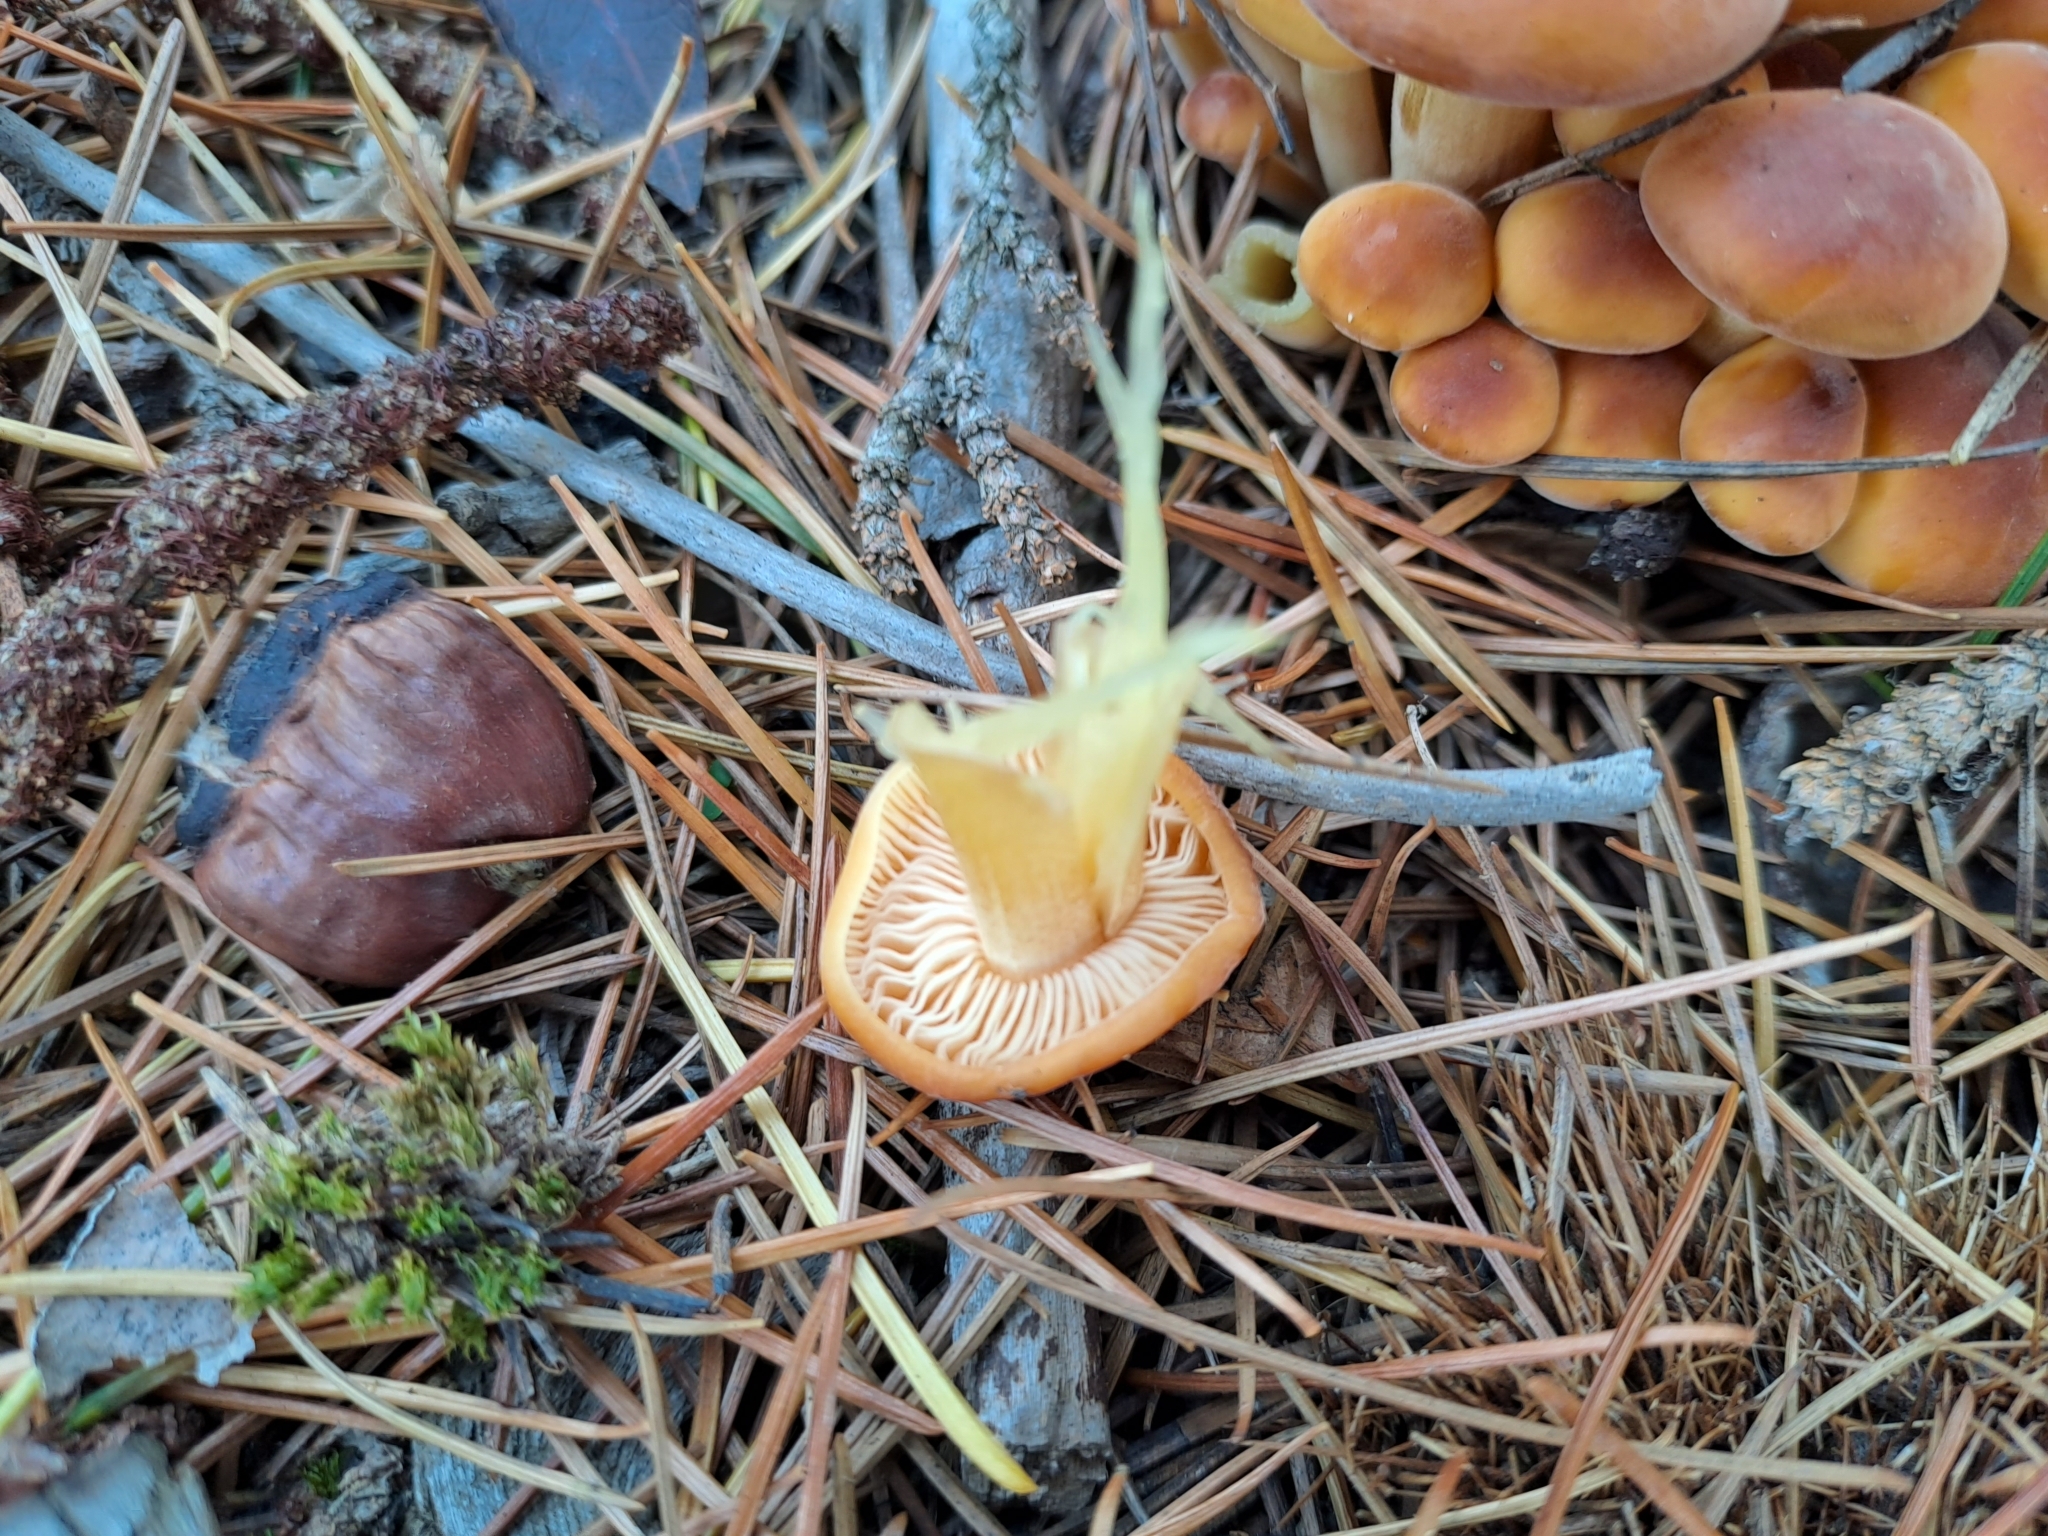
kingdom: Fungi
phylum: Basidiomycota
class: Agaricomycetes
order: Agaricales
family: Physalacriaceae
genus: Flammulina
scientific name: Flammulina velutipes
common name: Velvet shank
